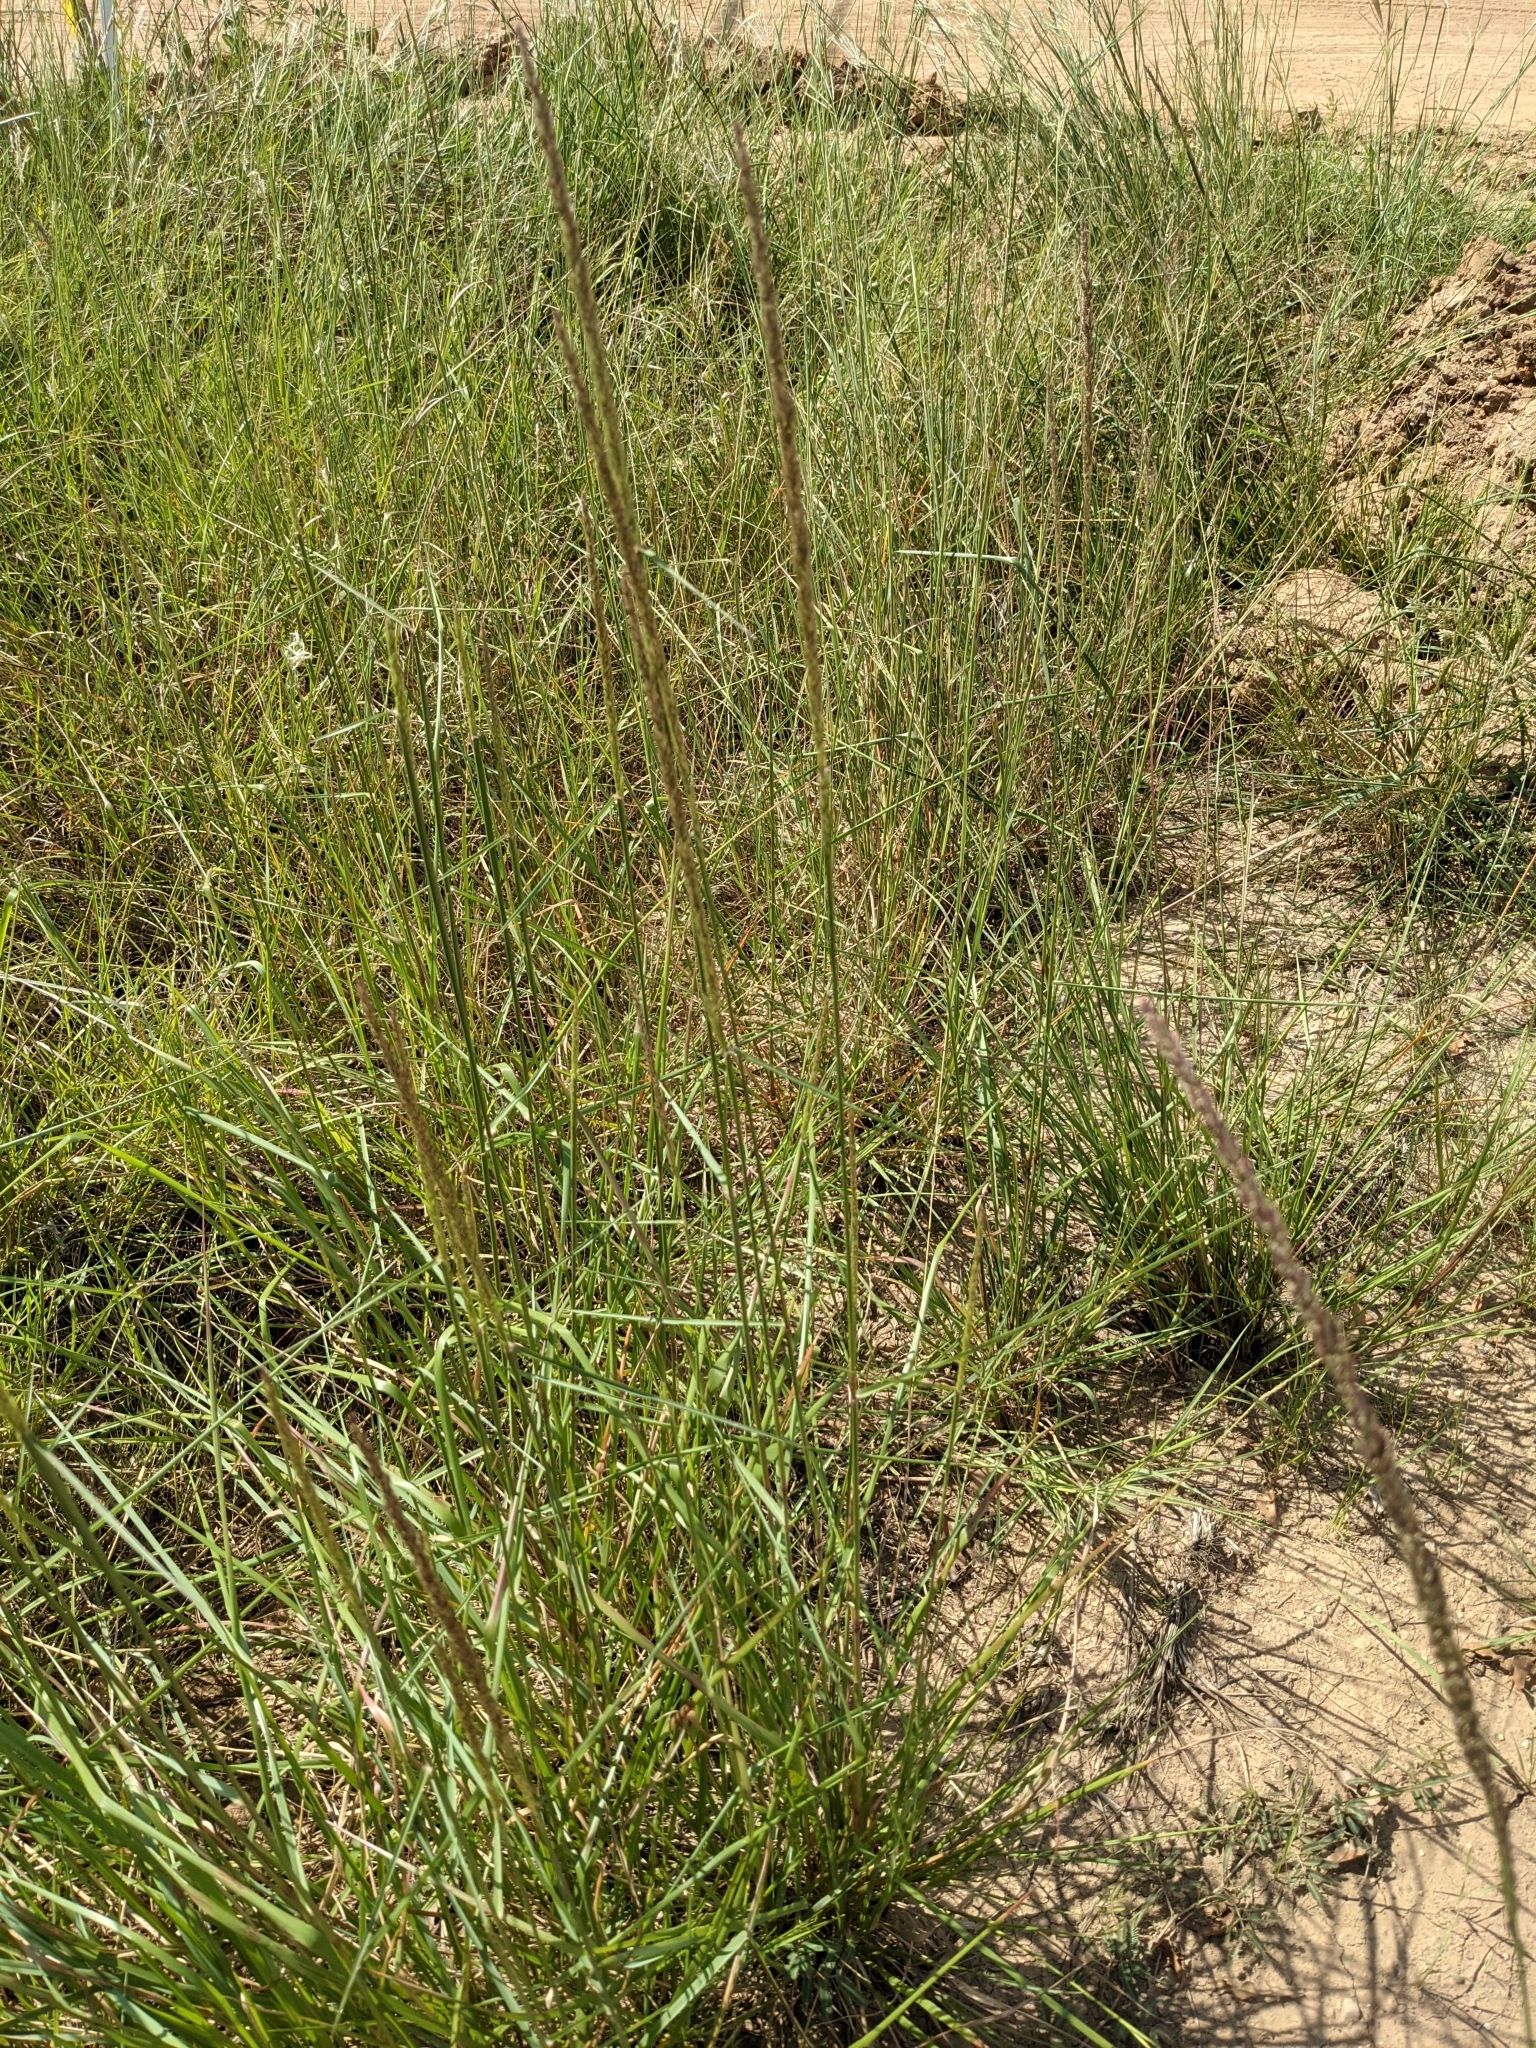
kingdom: Plantae
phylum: Tracheophyta
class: Liliopsida
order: Poales
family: Poaceae
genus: Tridens
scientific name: Tridens strictus
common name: Long-spike tridens
